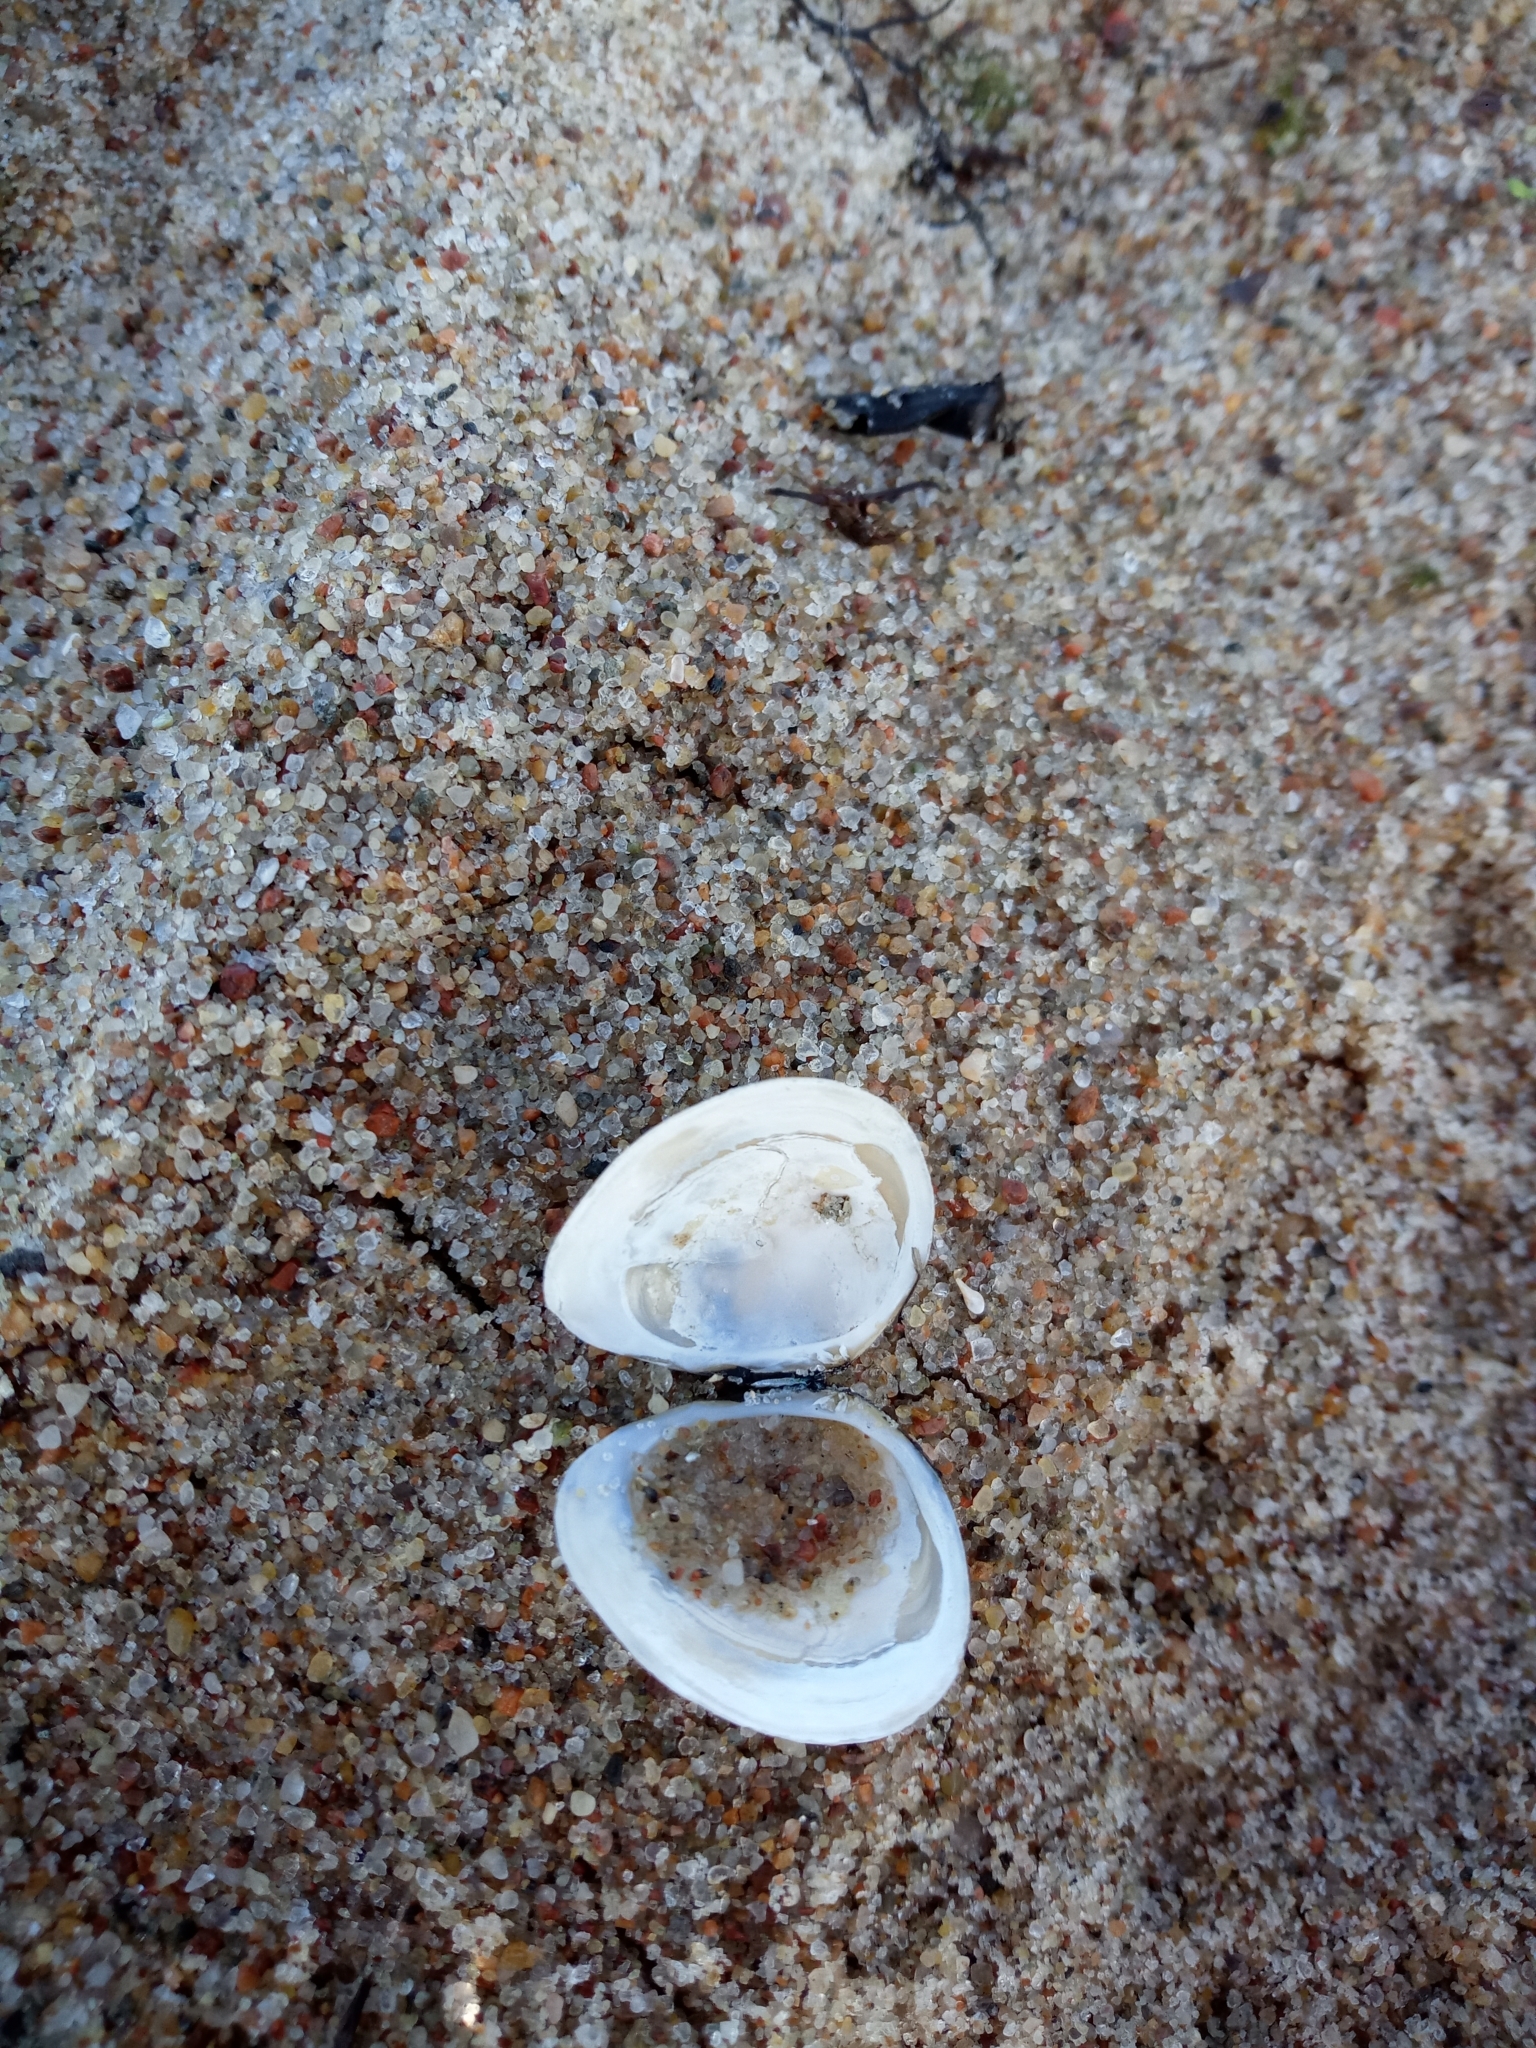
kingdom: Animalia
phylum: Mollusca
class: Bivalvia
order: Cardiida
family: Tellinidae
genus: Macoma
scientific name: Macoma balthica
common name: Baltic tellin
